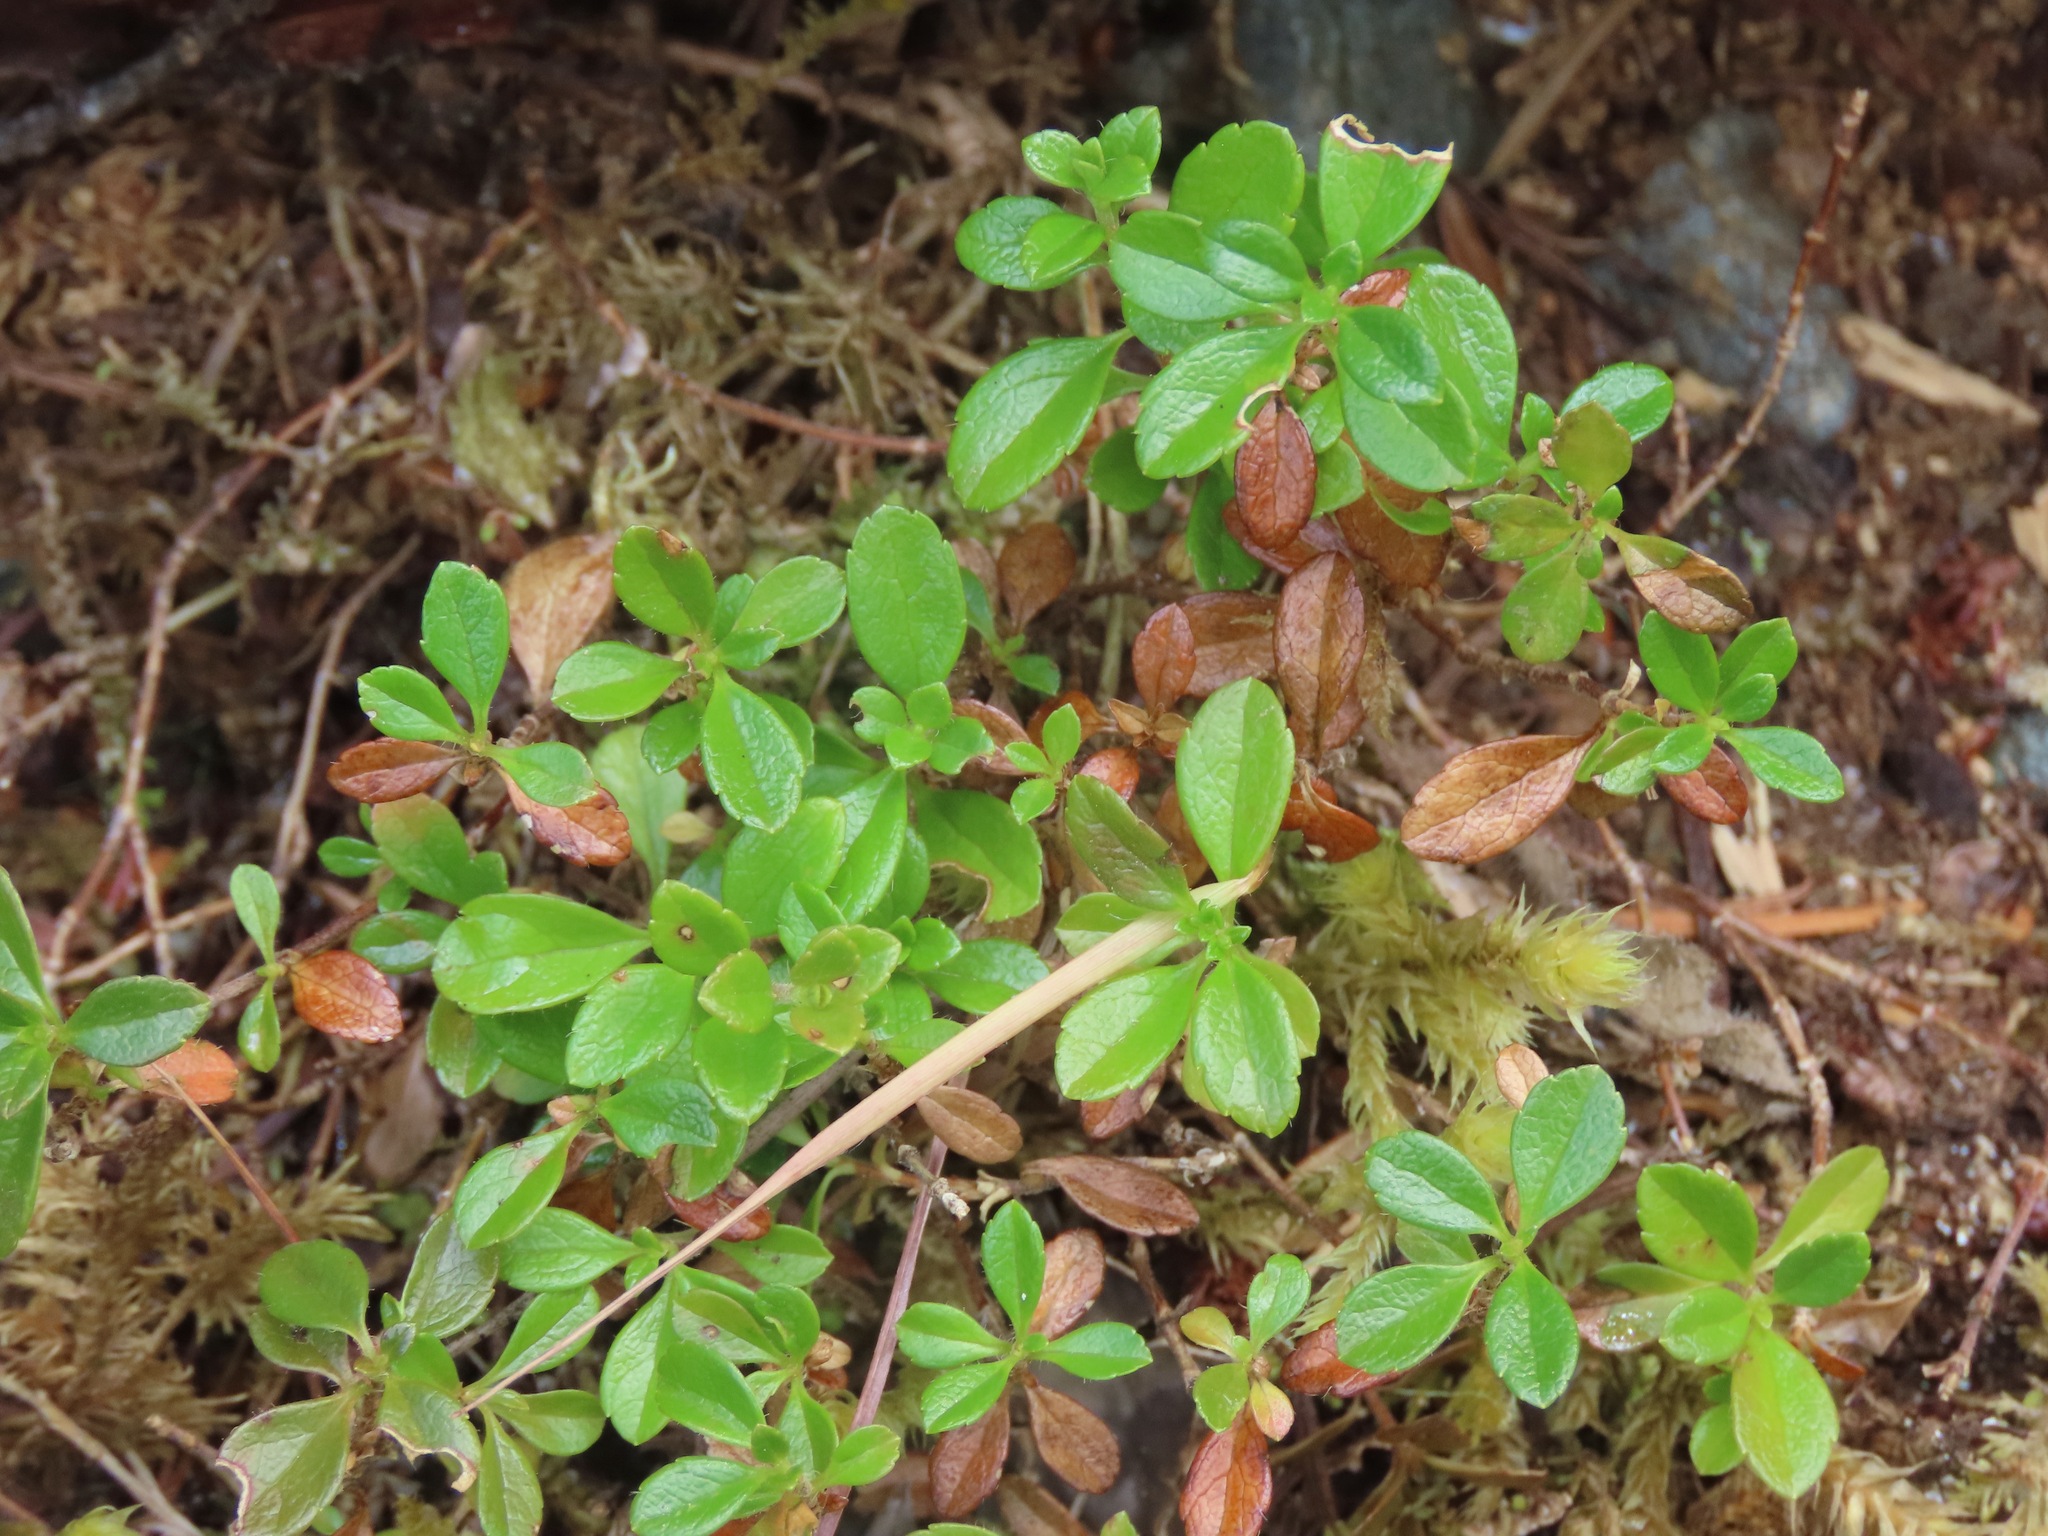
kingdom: Plantae
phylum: Tracheophyta
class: Magnoliopsida
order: Dipsacales
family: Caprifoliaceae
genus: Linnaea
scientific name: Linnaea borealis
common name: Twinflower
